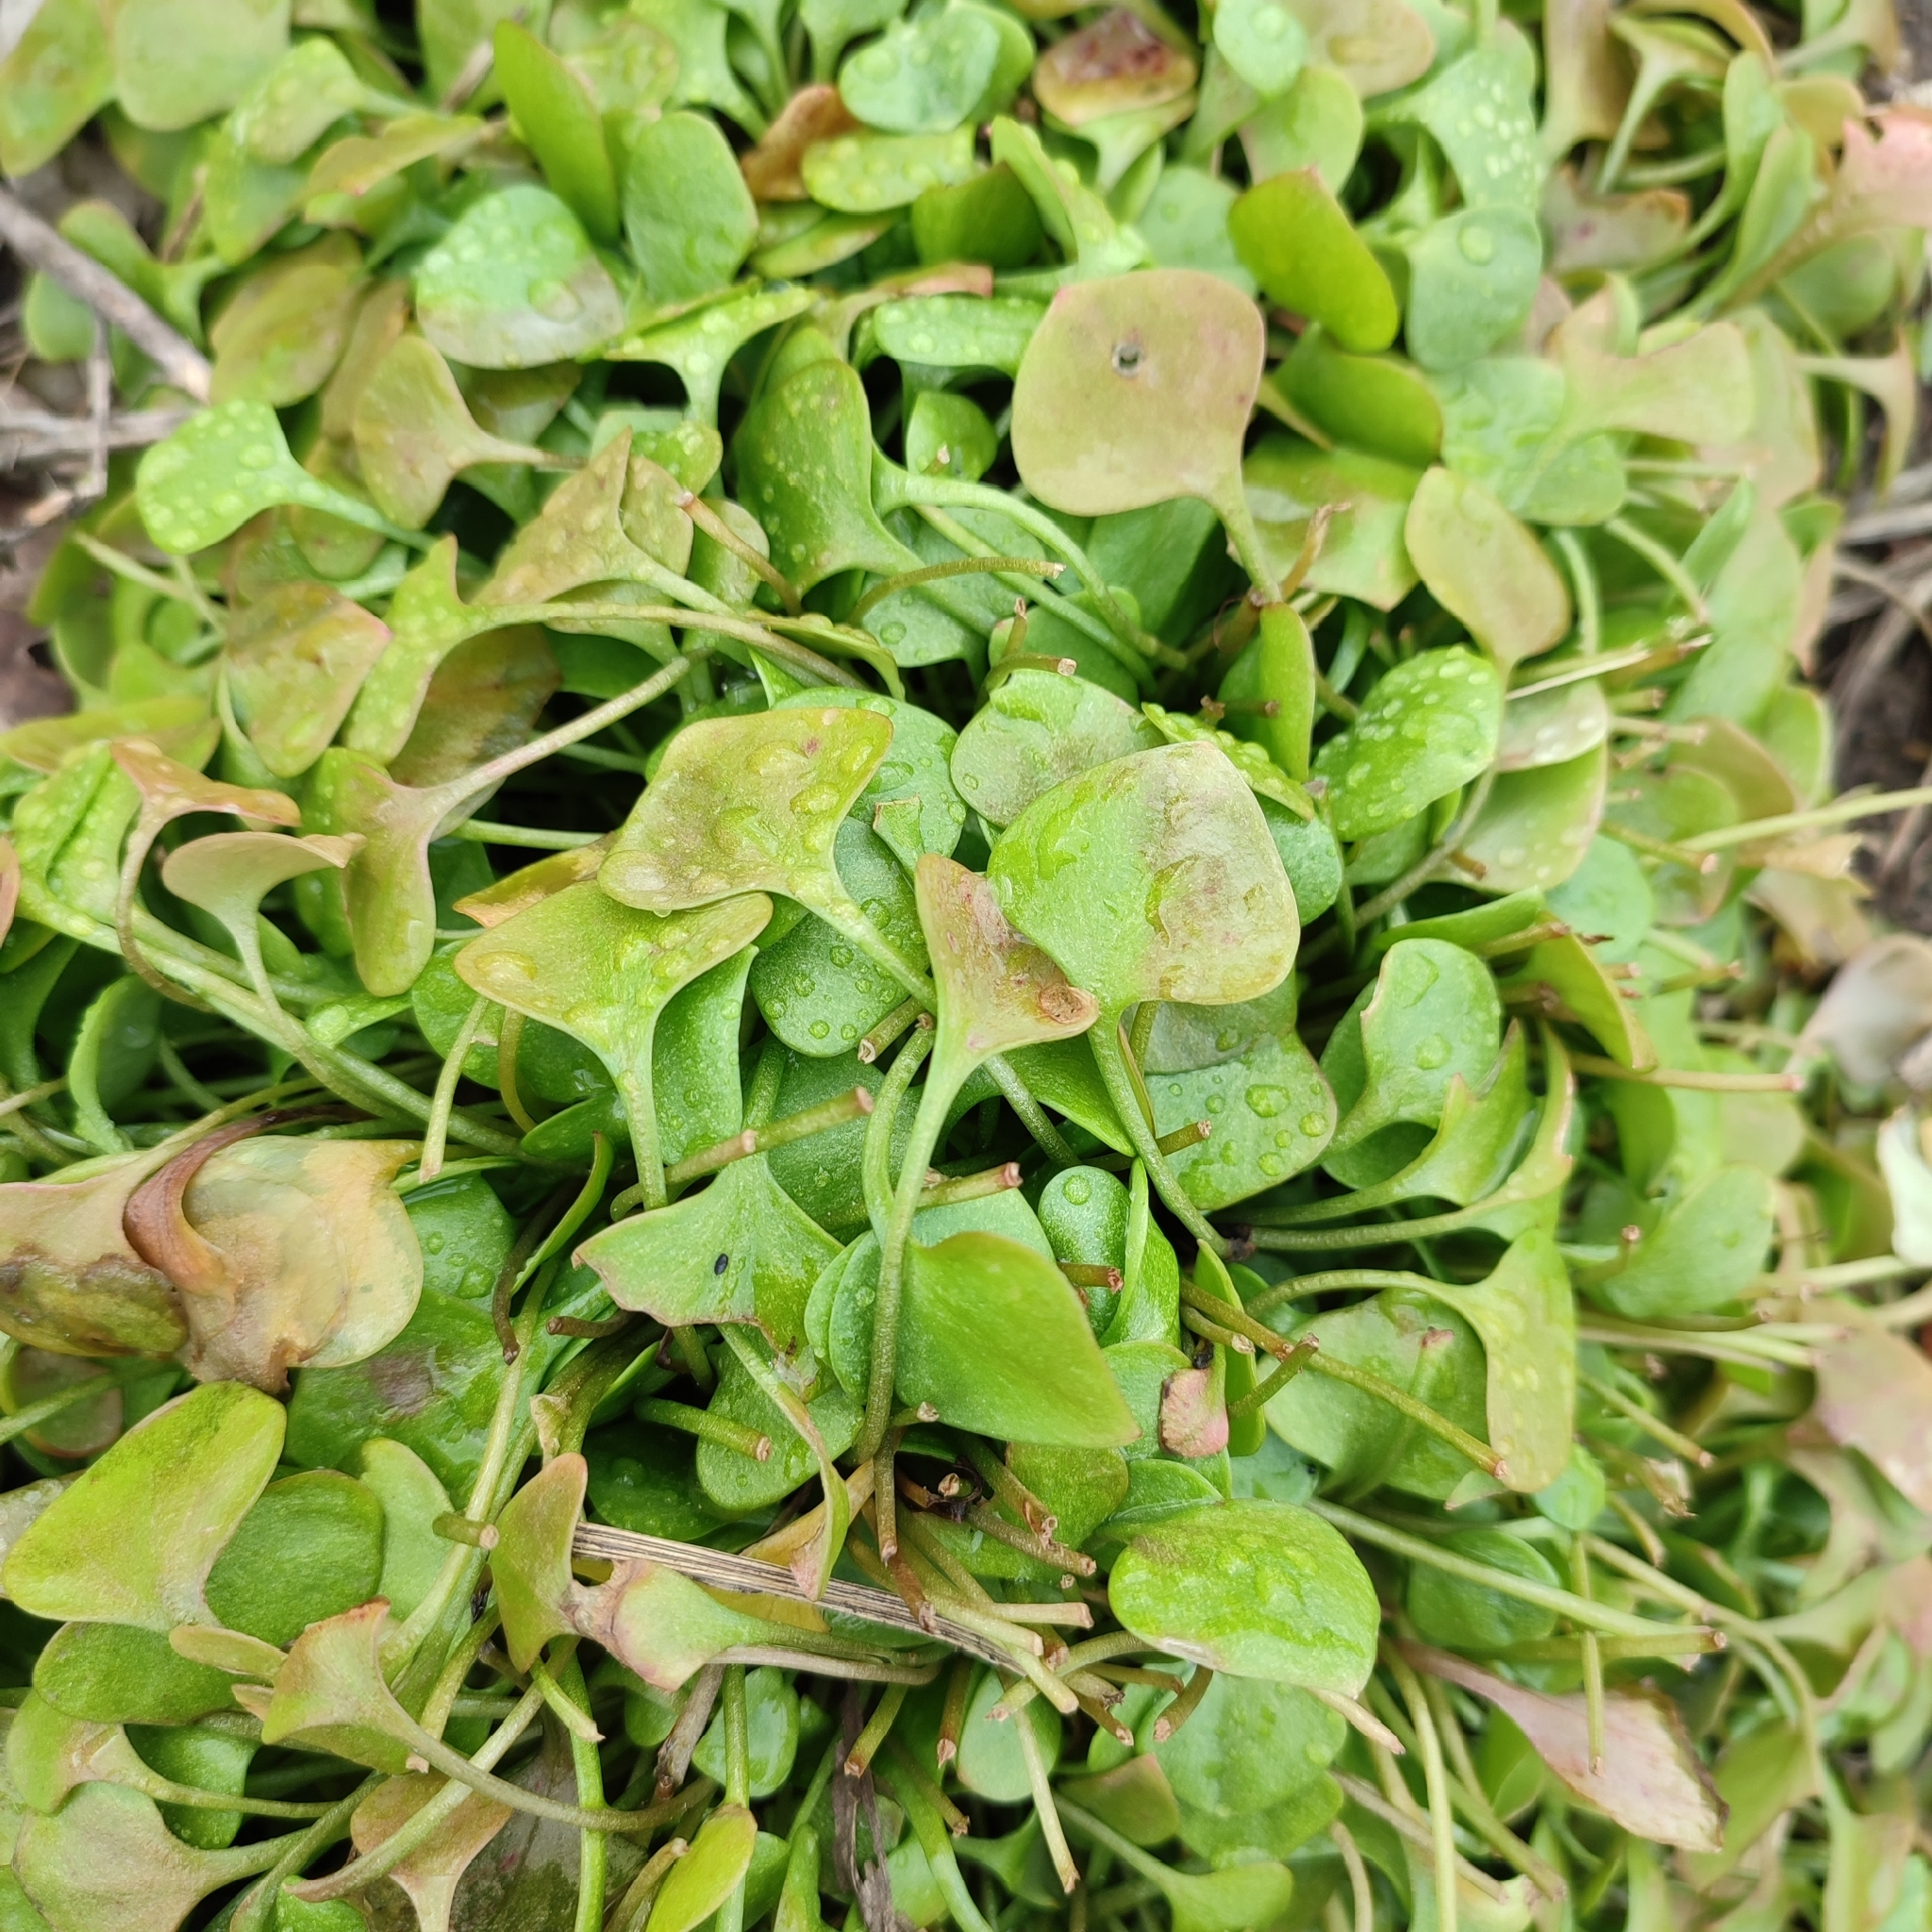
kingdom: Plantae
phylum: Tracheophyta
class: Magnoliopsida
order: Caryophyllales
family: Montiaceae
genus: Claytonia
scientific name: Claytonia perfoliata
